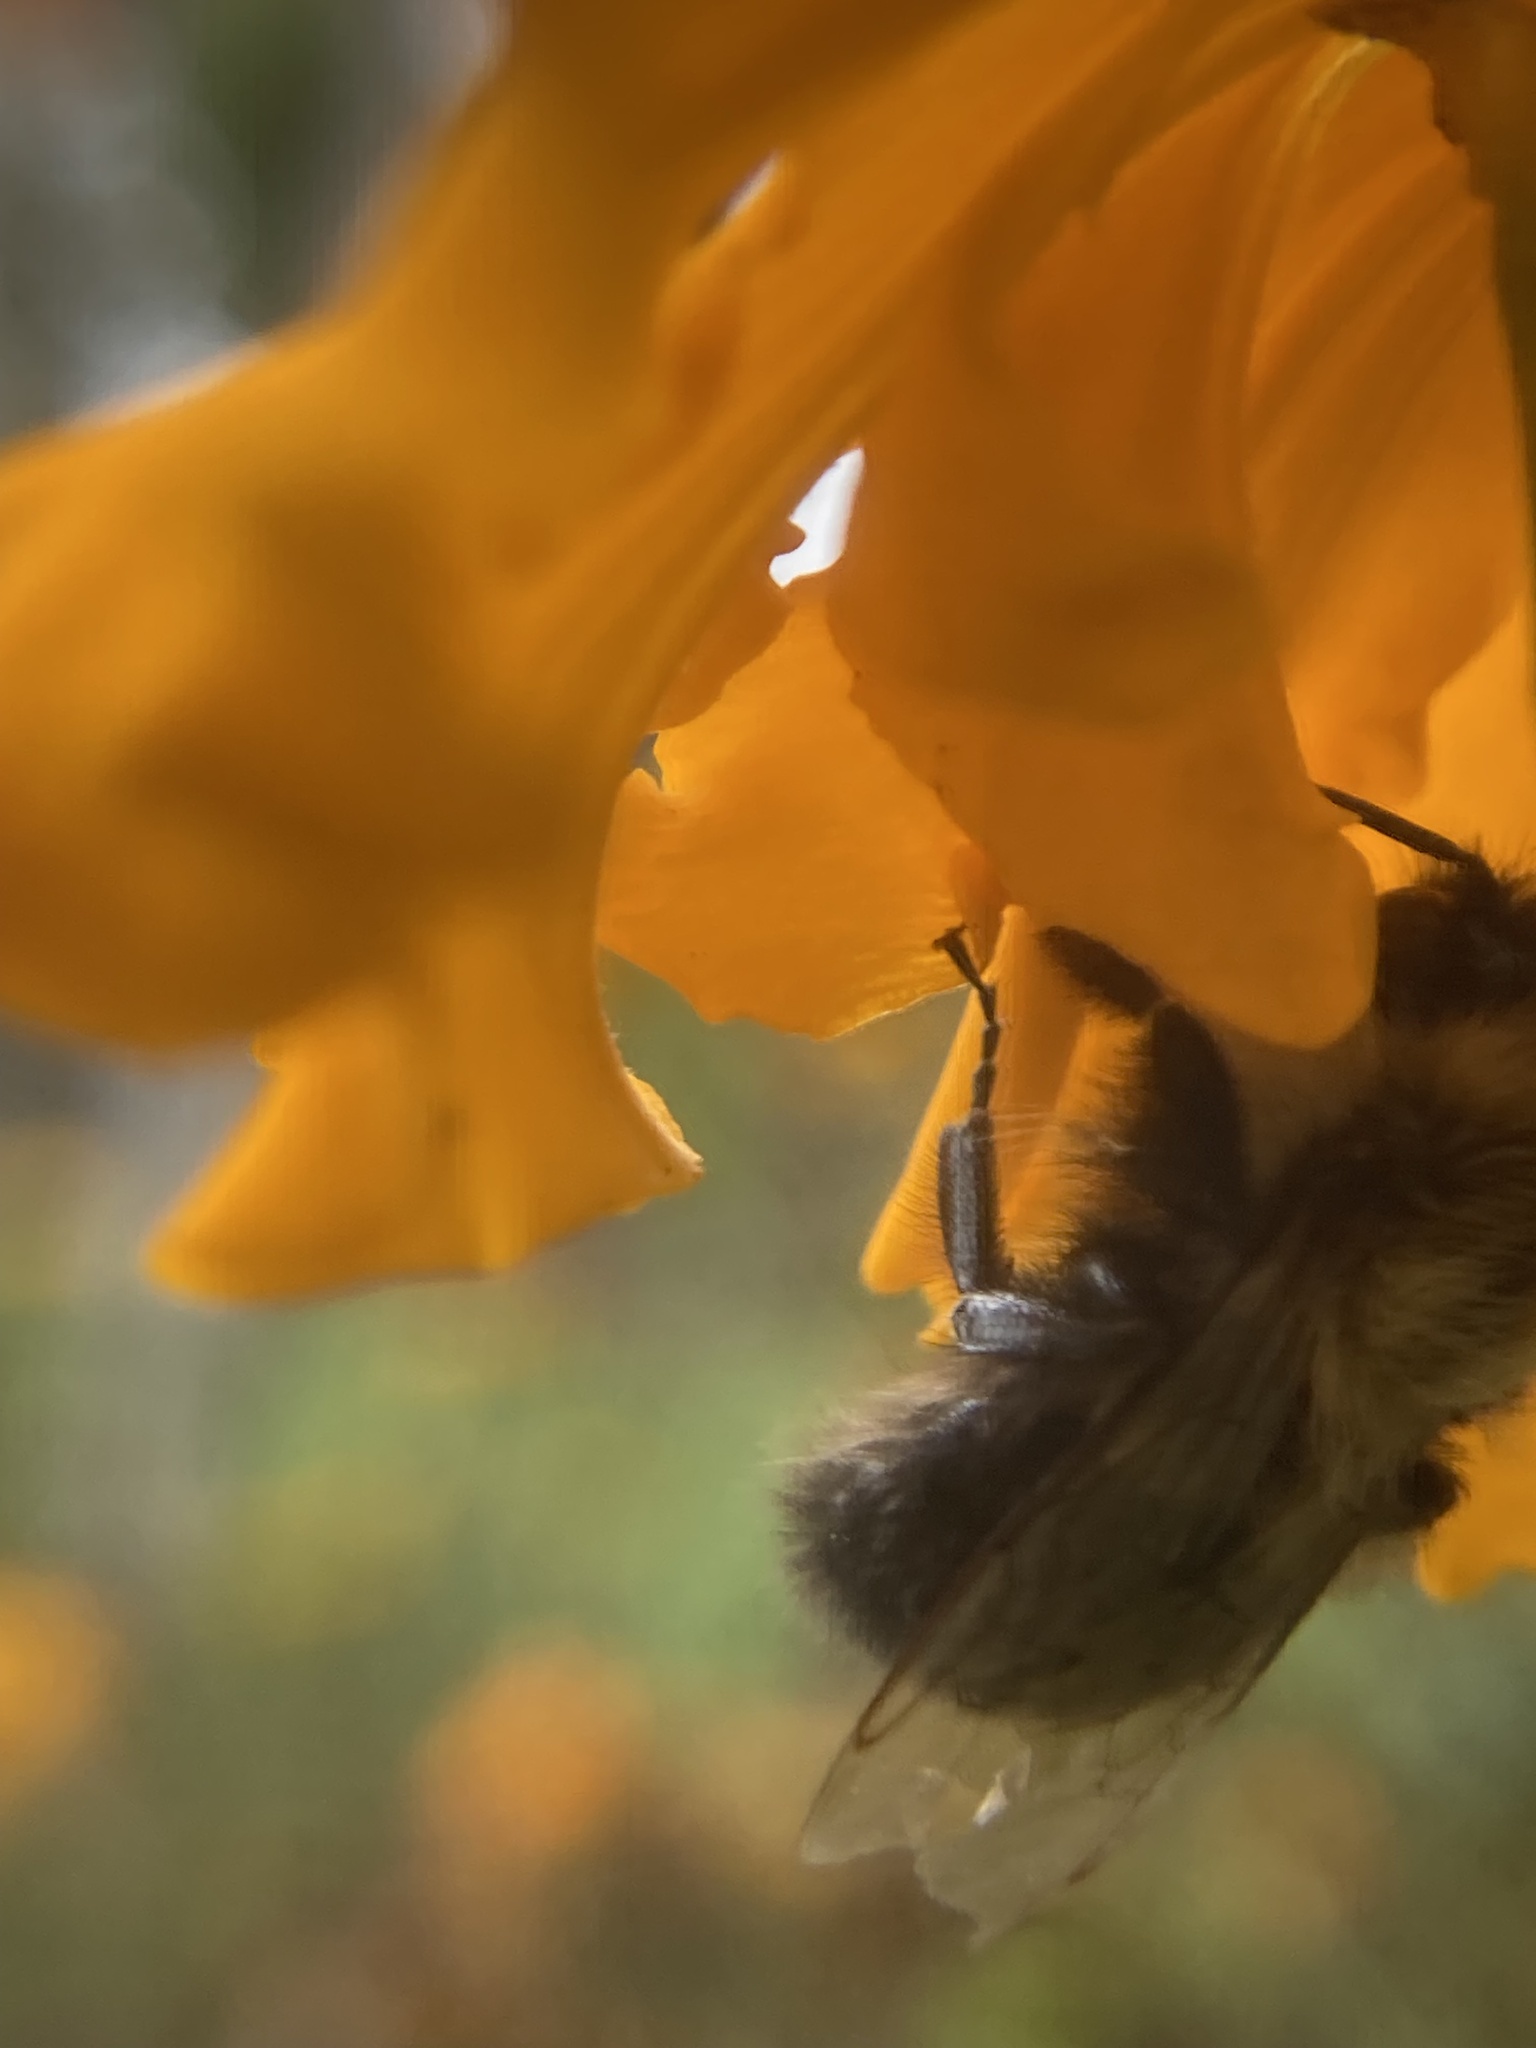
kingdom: Animalia
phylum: Arthropoda
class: Insecta
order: Hymenoptera
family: Apidae
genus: Bombus
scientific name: Bombus impatiens
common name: Common eastern bumble bee
